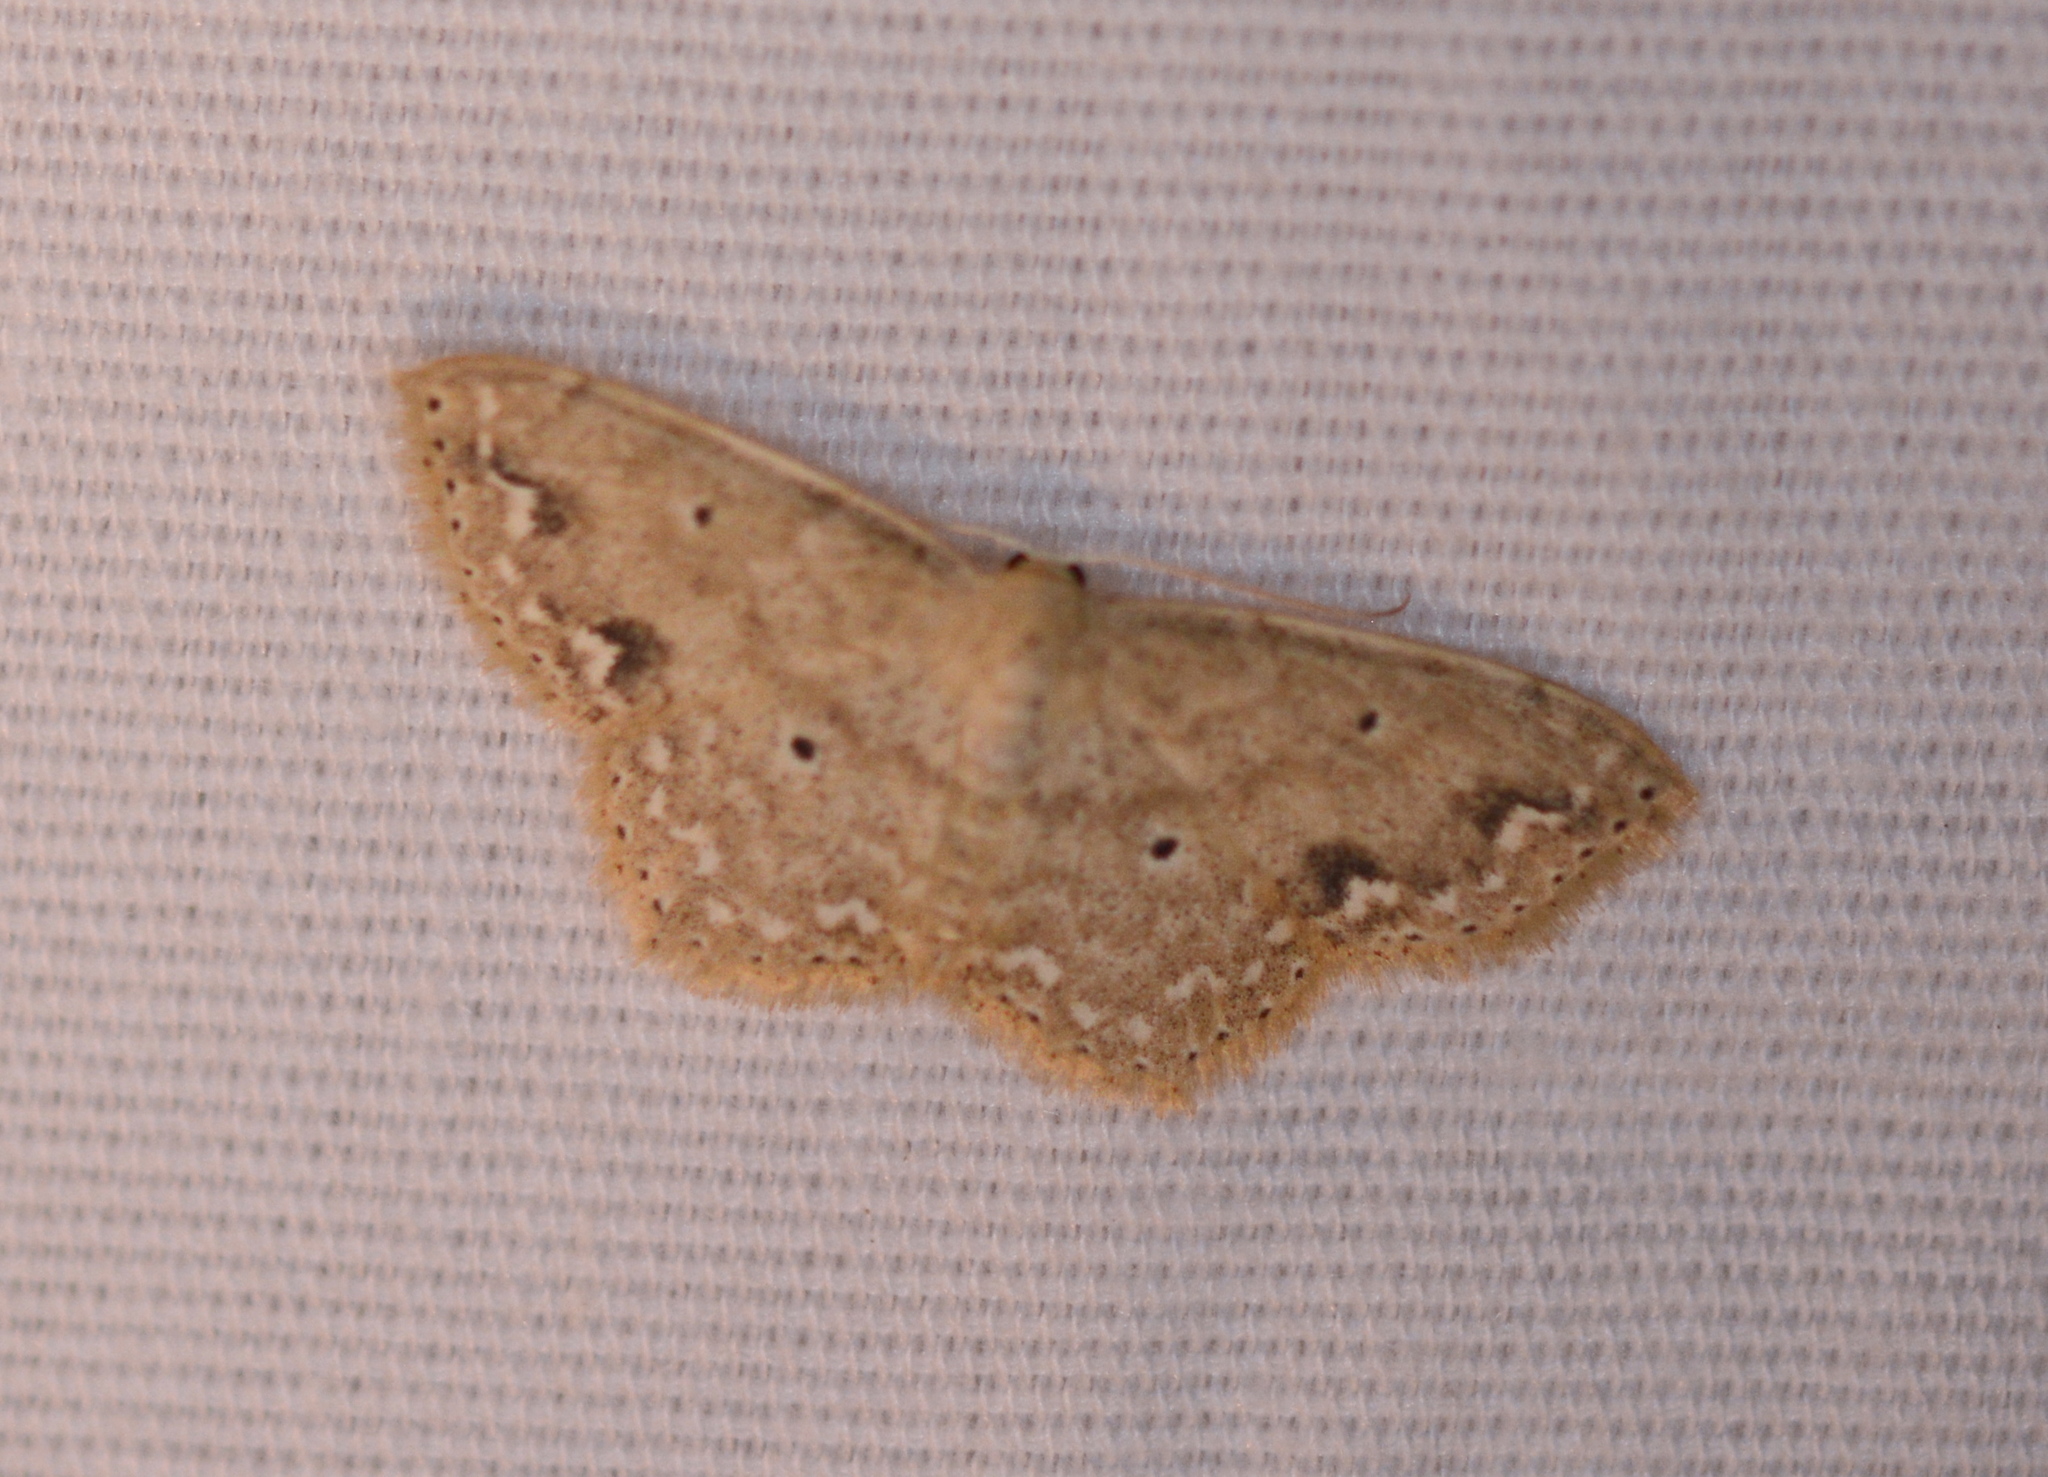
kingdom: Animalia
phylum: Arthropoda
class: Insecta
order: Lepidoptera
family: Geometridae
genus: Scopula
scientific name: Scopula compensata
